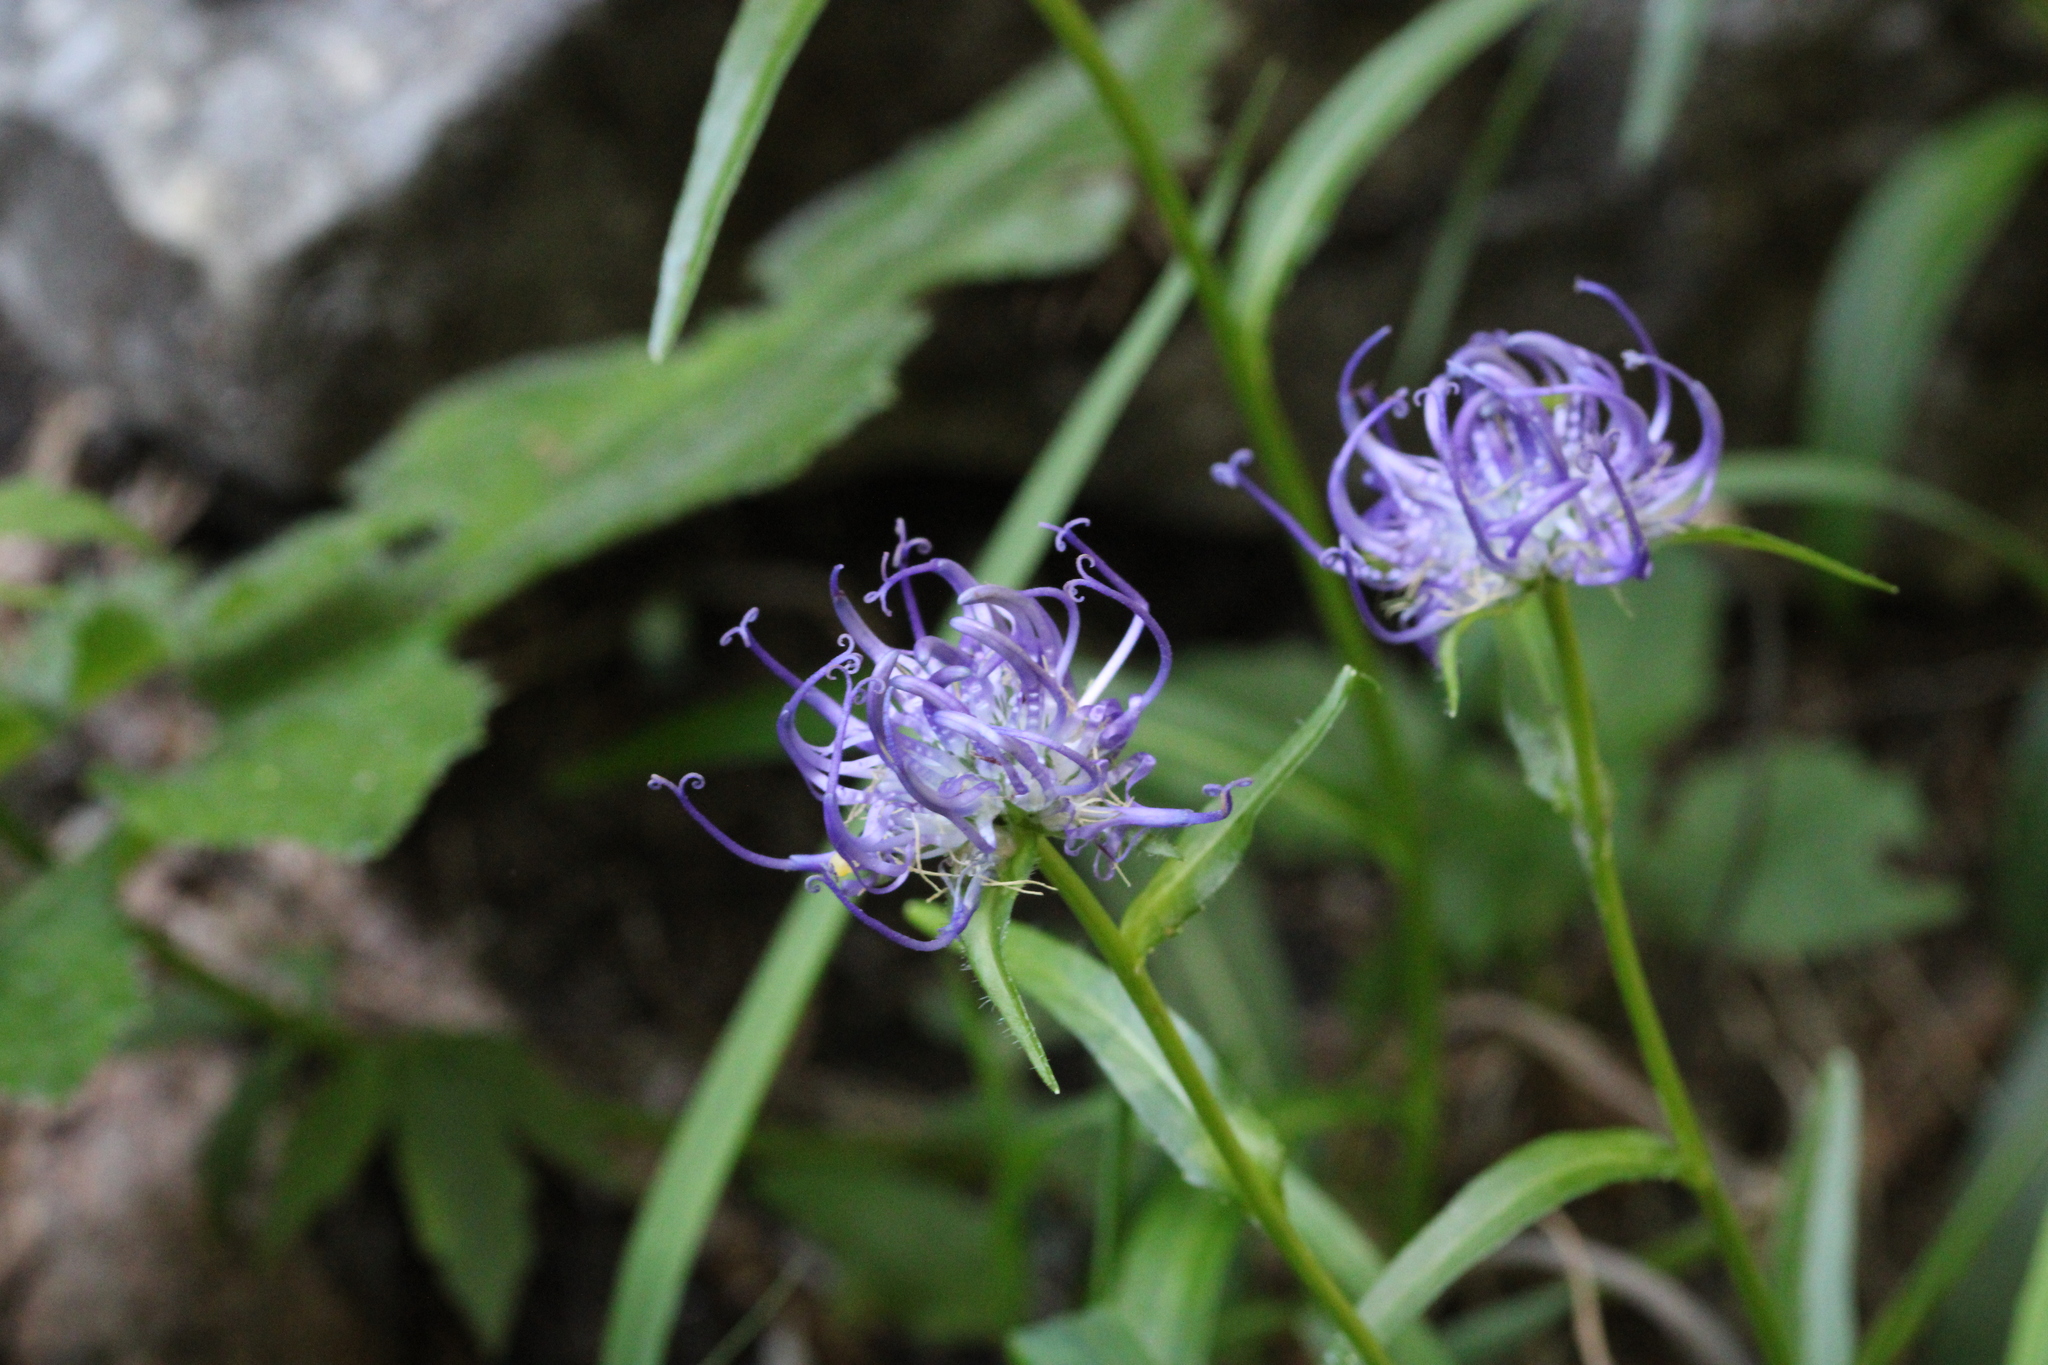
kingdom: Plantae
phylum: Tracheophyta
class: Magnoliopsida
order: Asterales
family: Campanulaceae
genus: Phyteuma
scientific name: Phyteuma orbiculare
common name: Round-headed rampion
